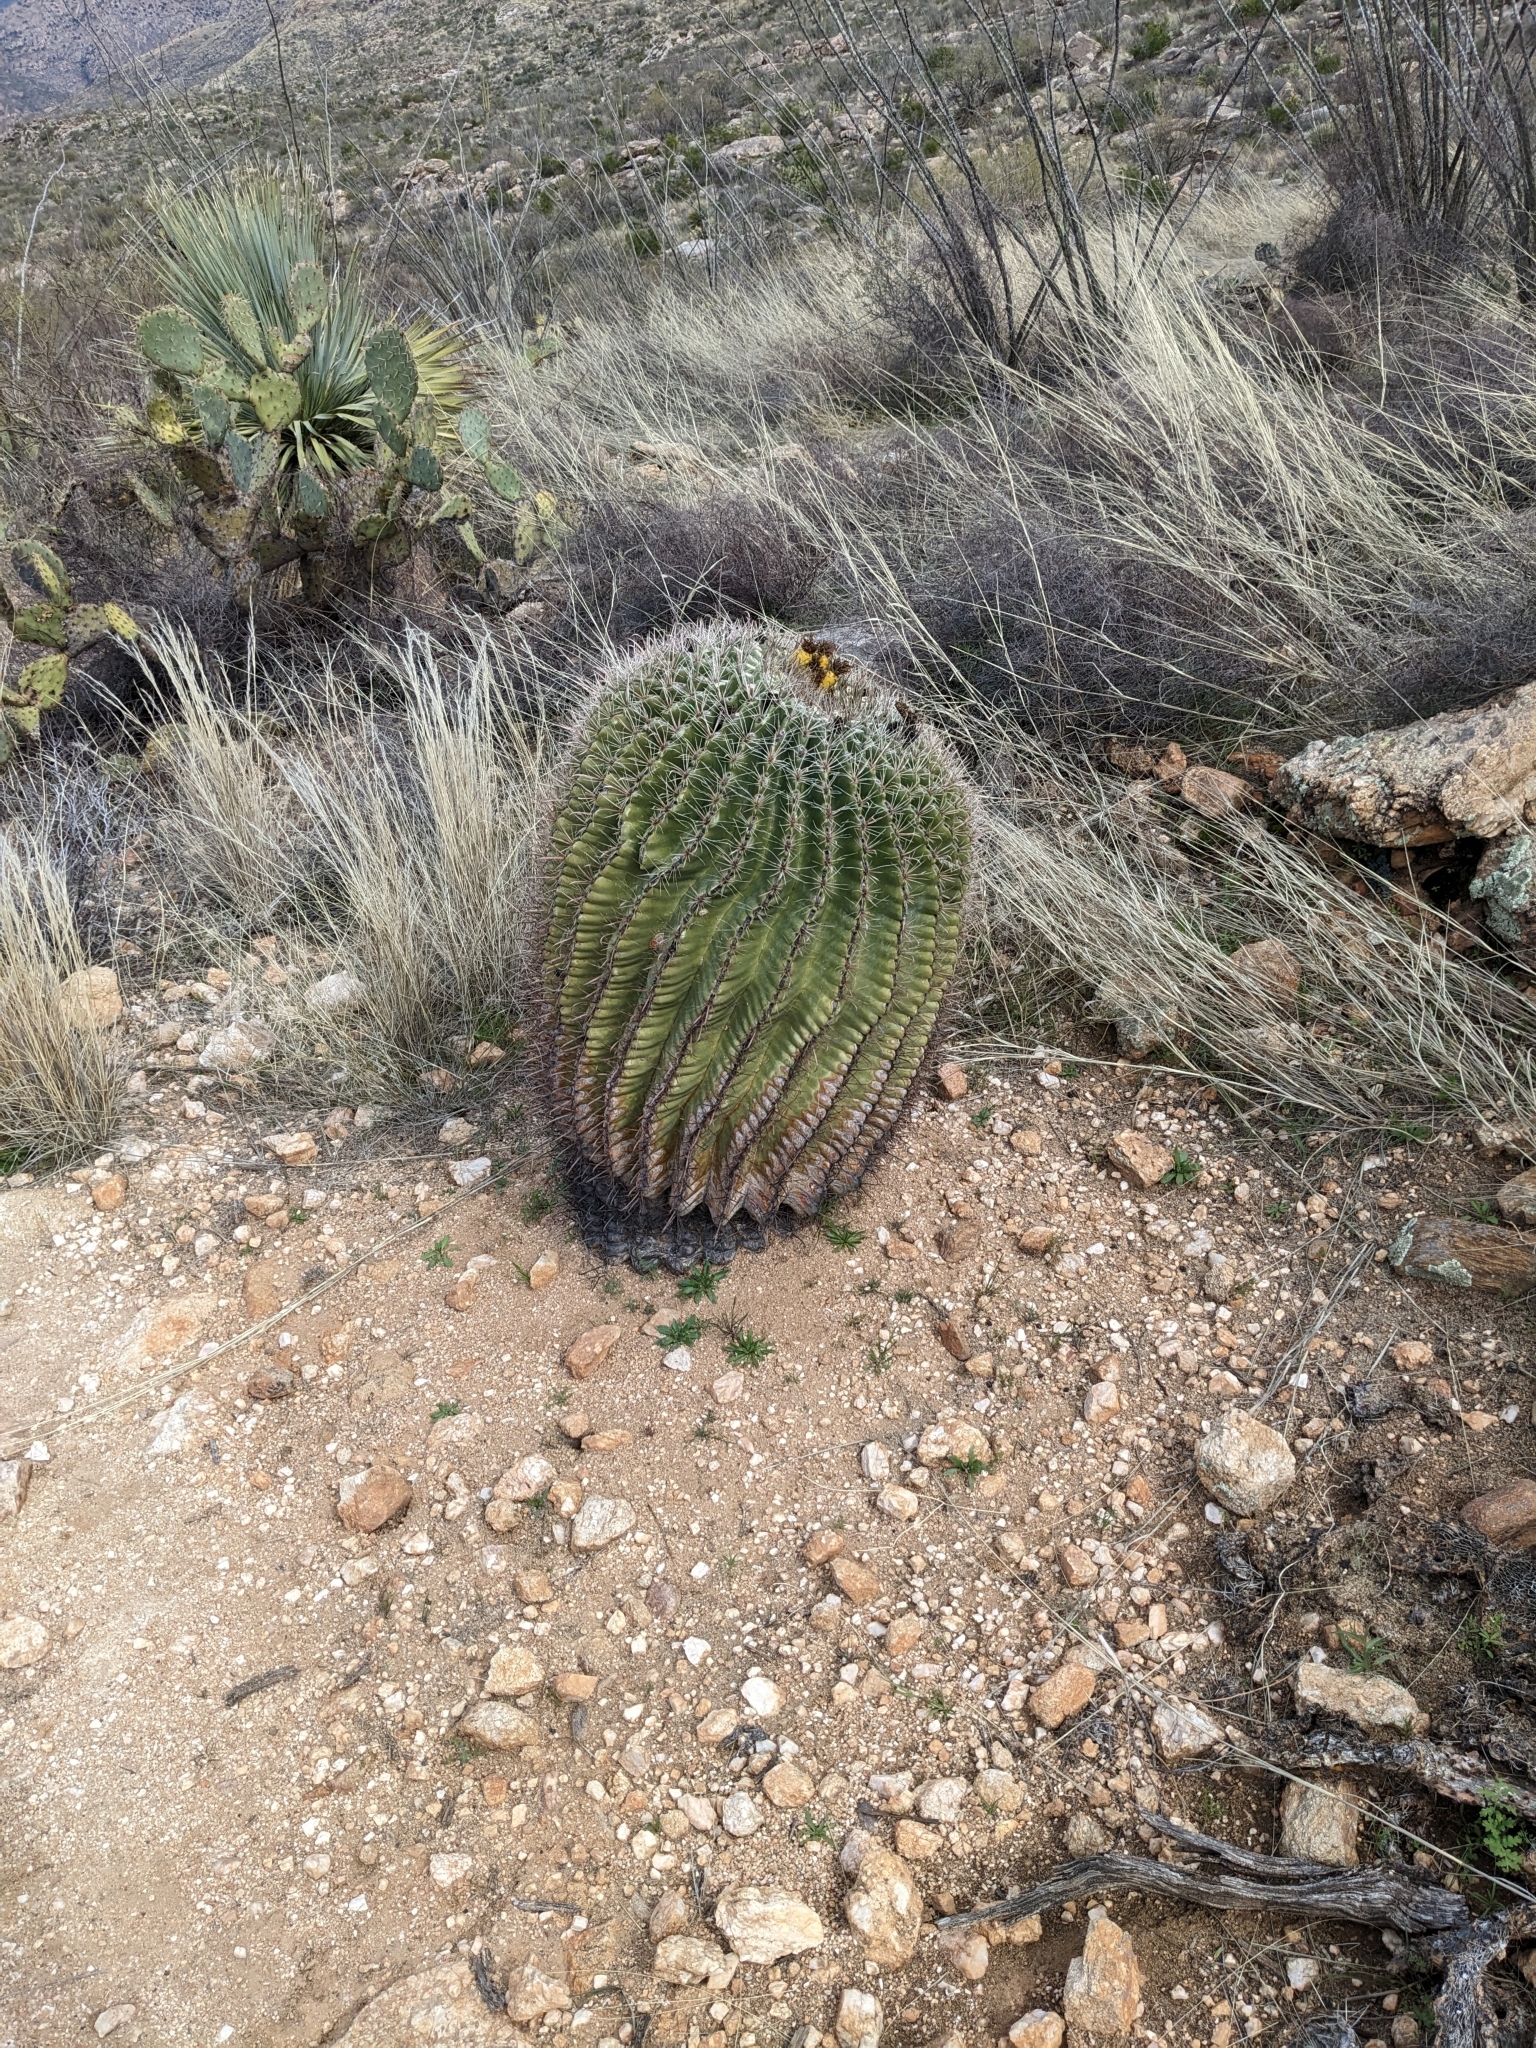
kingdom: Plantae
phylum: Tracheophyta
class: Magnoliopsida
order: Caryophyllales
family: Cactaceae
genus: Ferocactus
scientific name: Ferocactus wislizeni
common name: Candy barrel cactus
